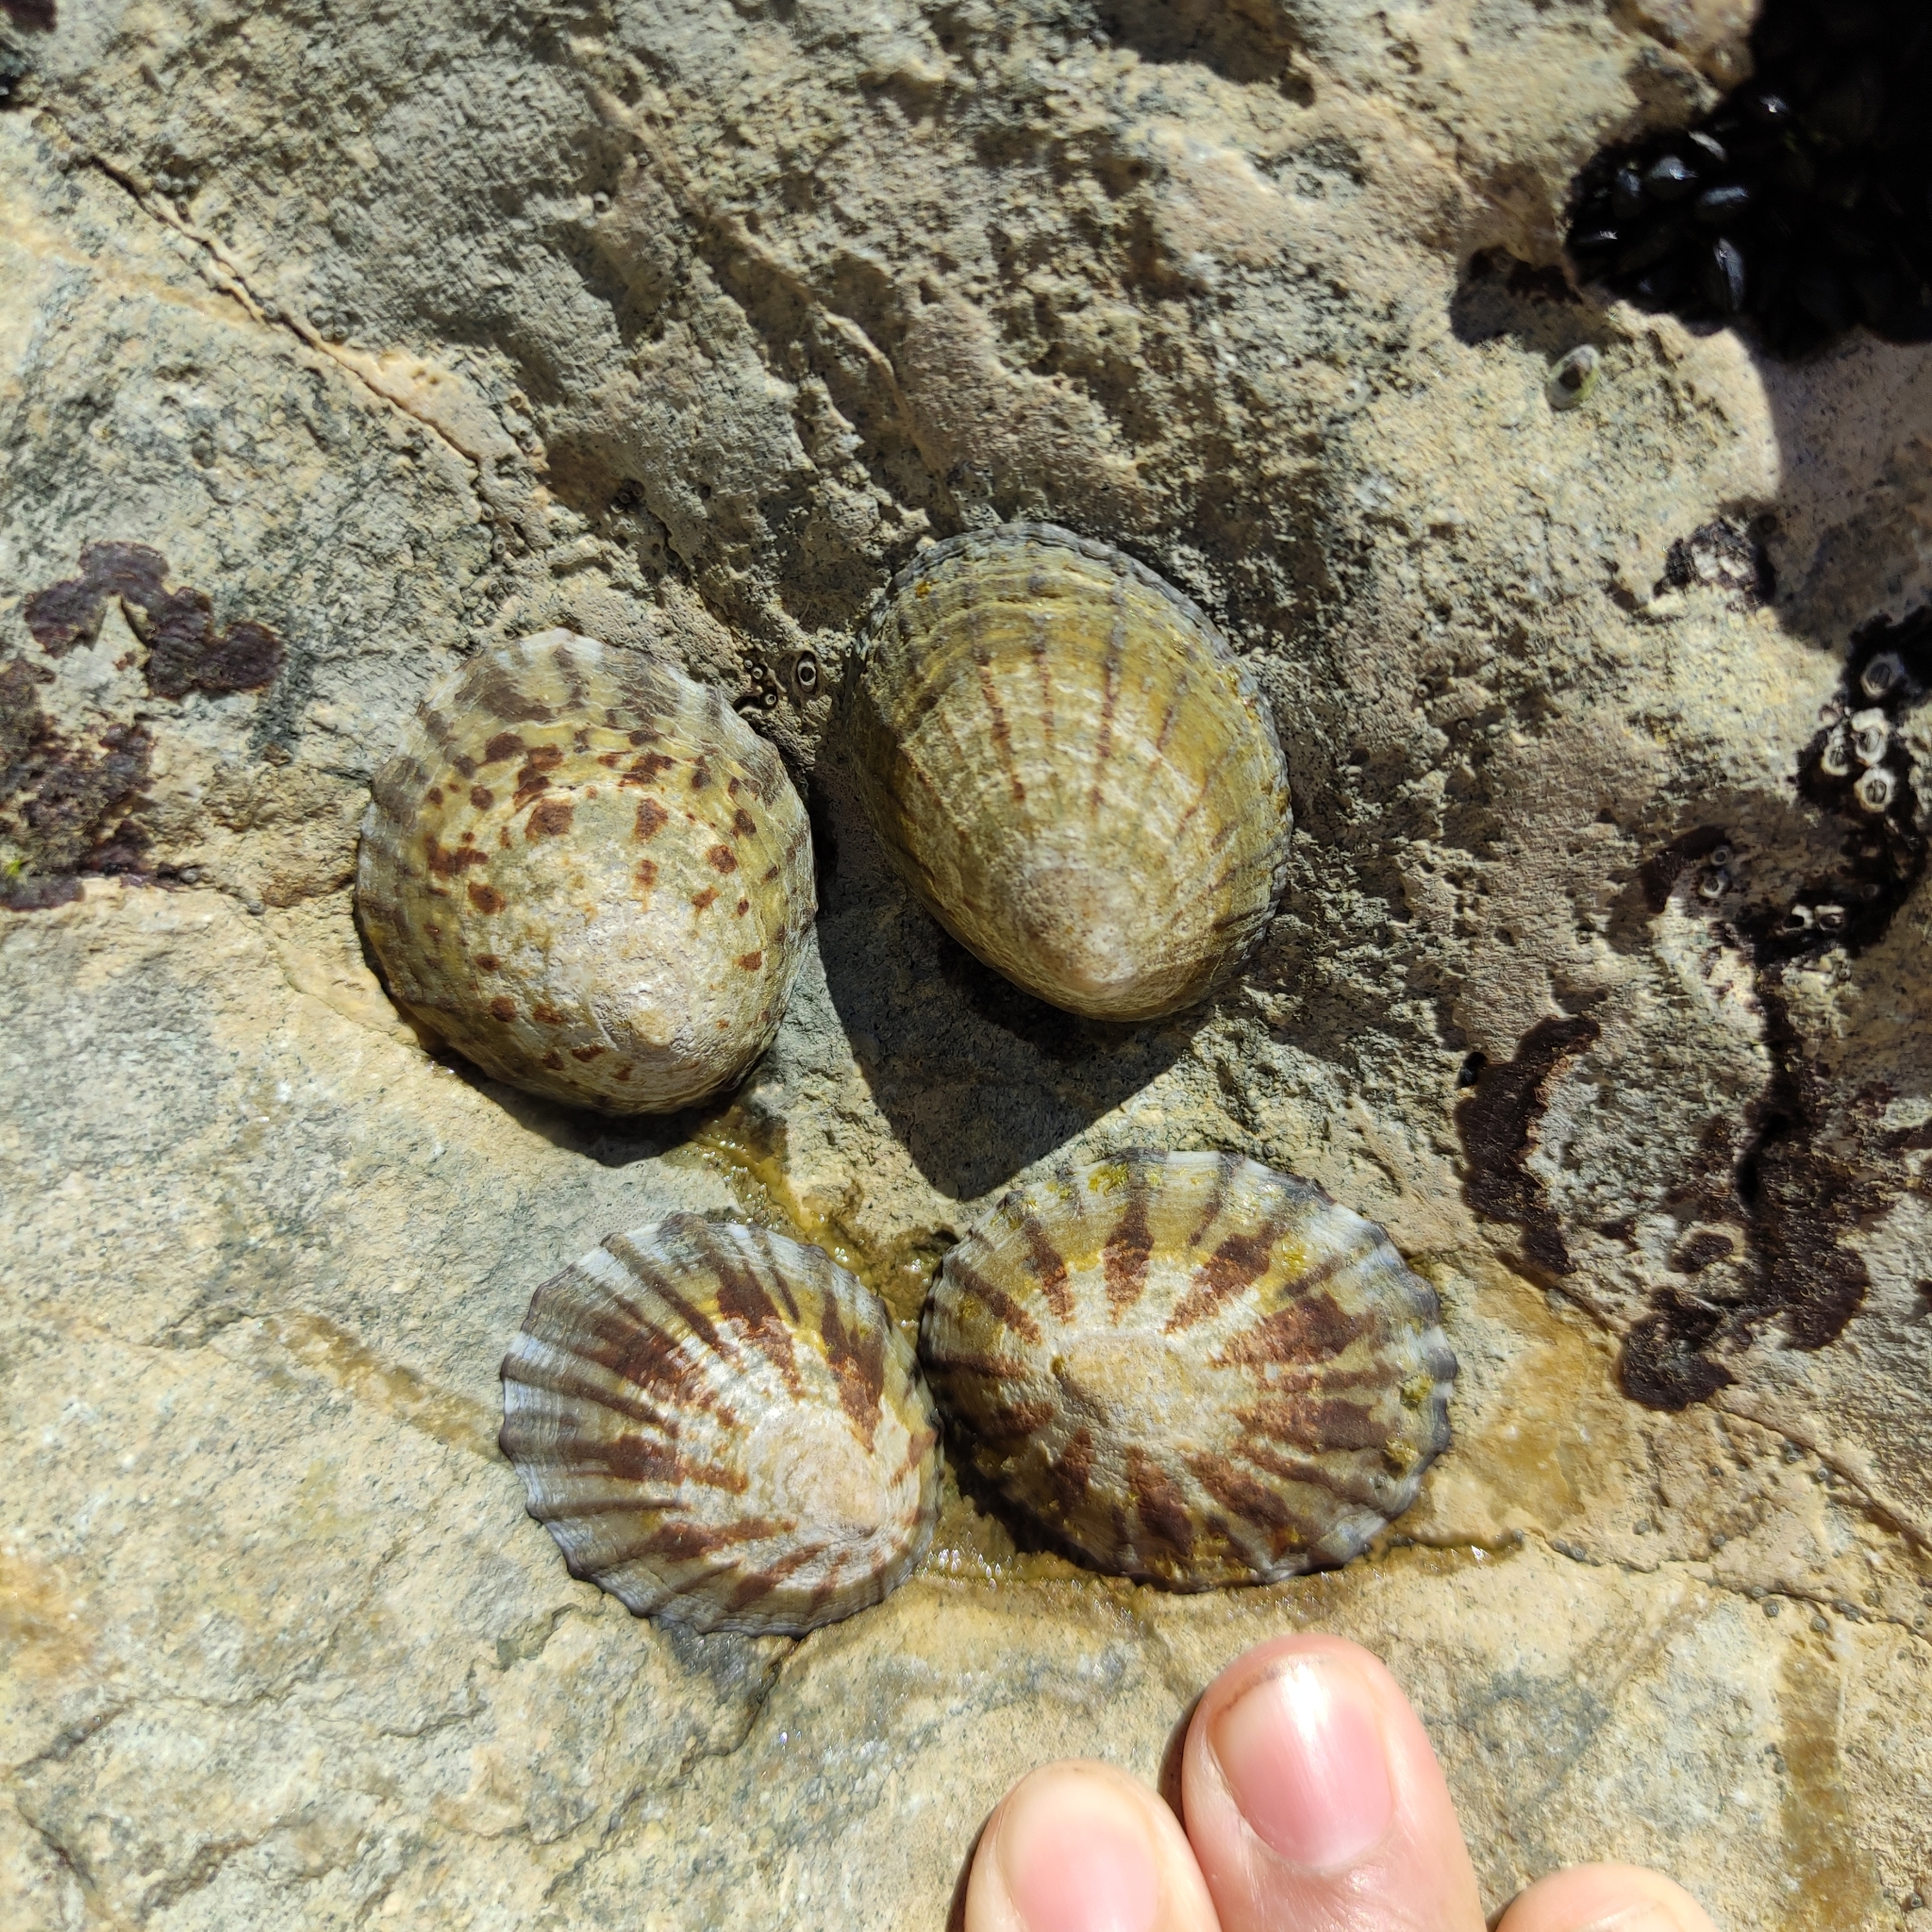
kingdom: Animalia
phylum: Mollusca
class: Gastropoda
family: Nacellidae
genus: Cellana
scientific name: Cellana radians
